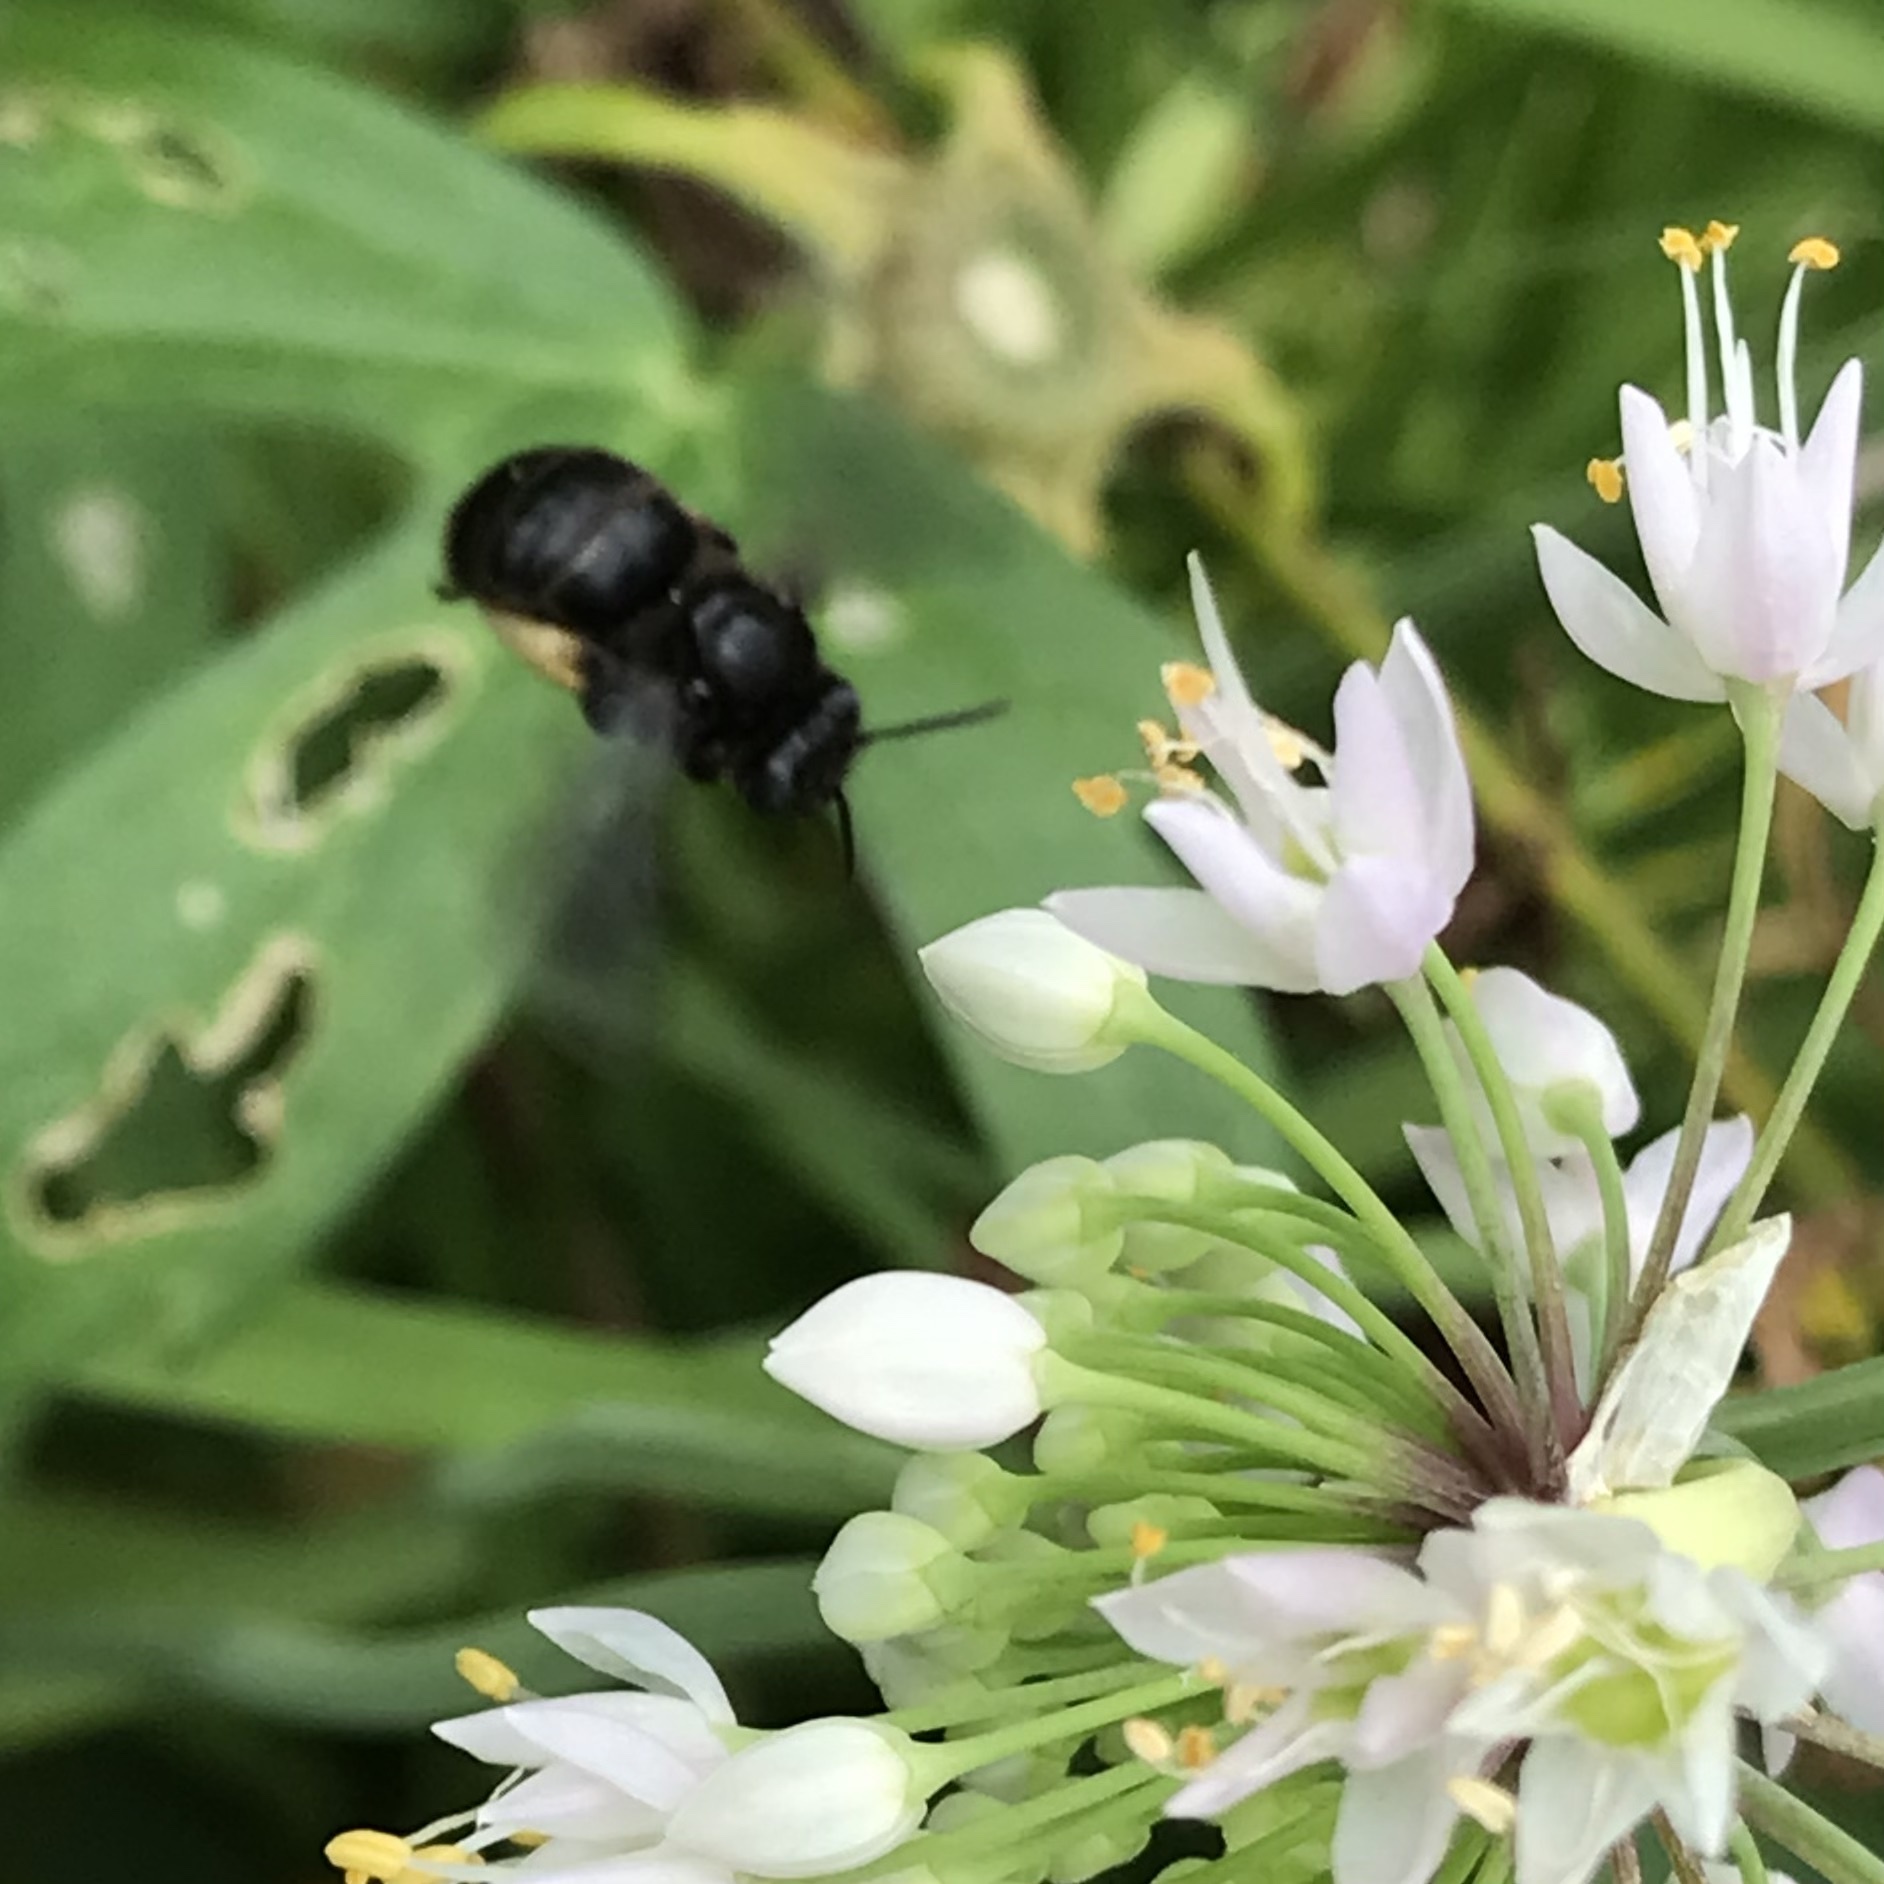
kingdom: Animalia
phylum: Arthropoda
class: Insecta
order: Hymenoptera
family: Apidae
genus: Melissodes
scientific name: Melissodes bimaculatus
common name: Two-spotted long-horned bee
